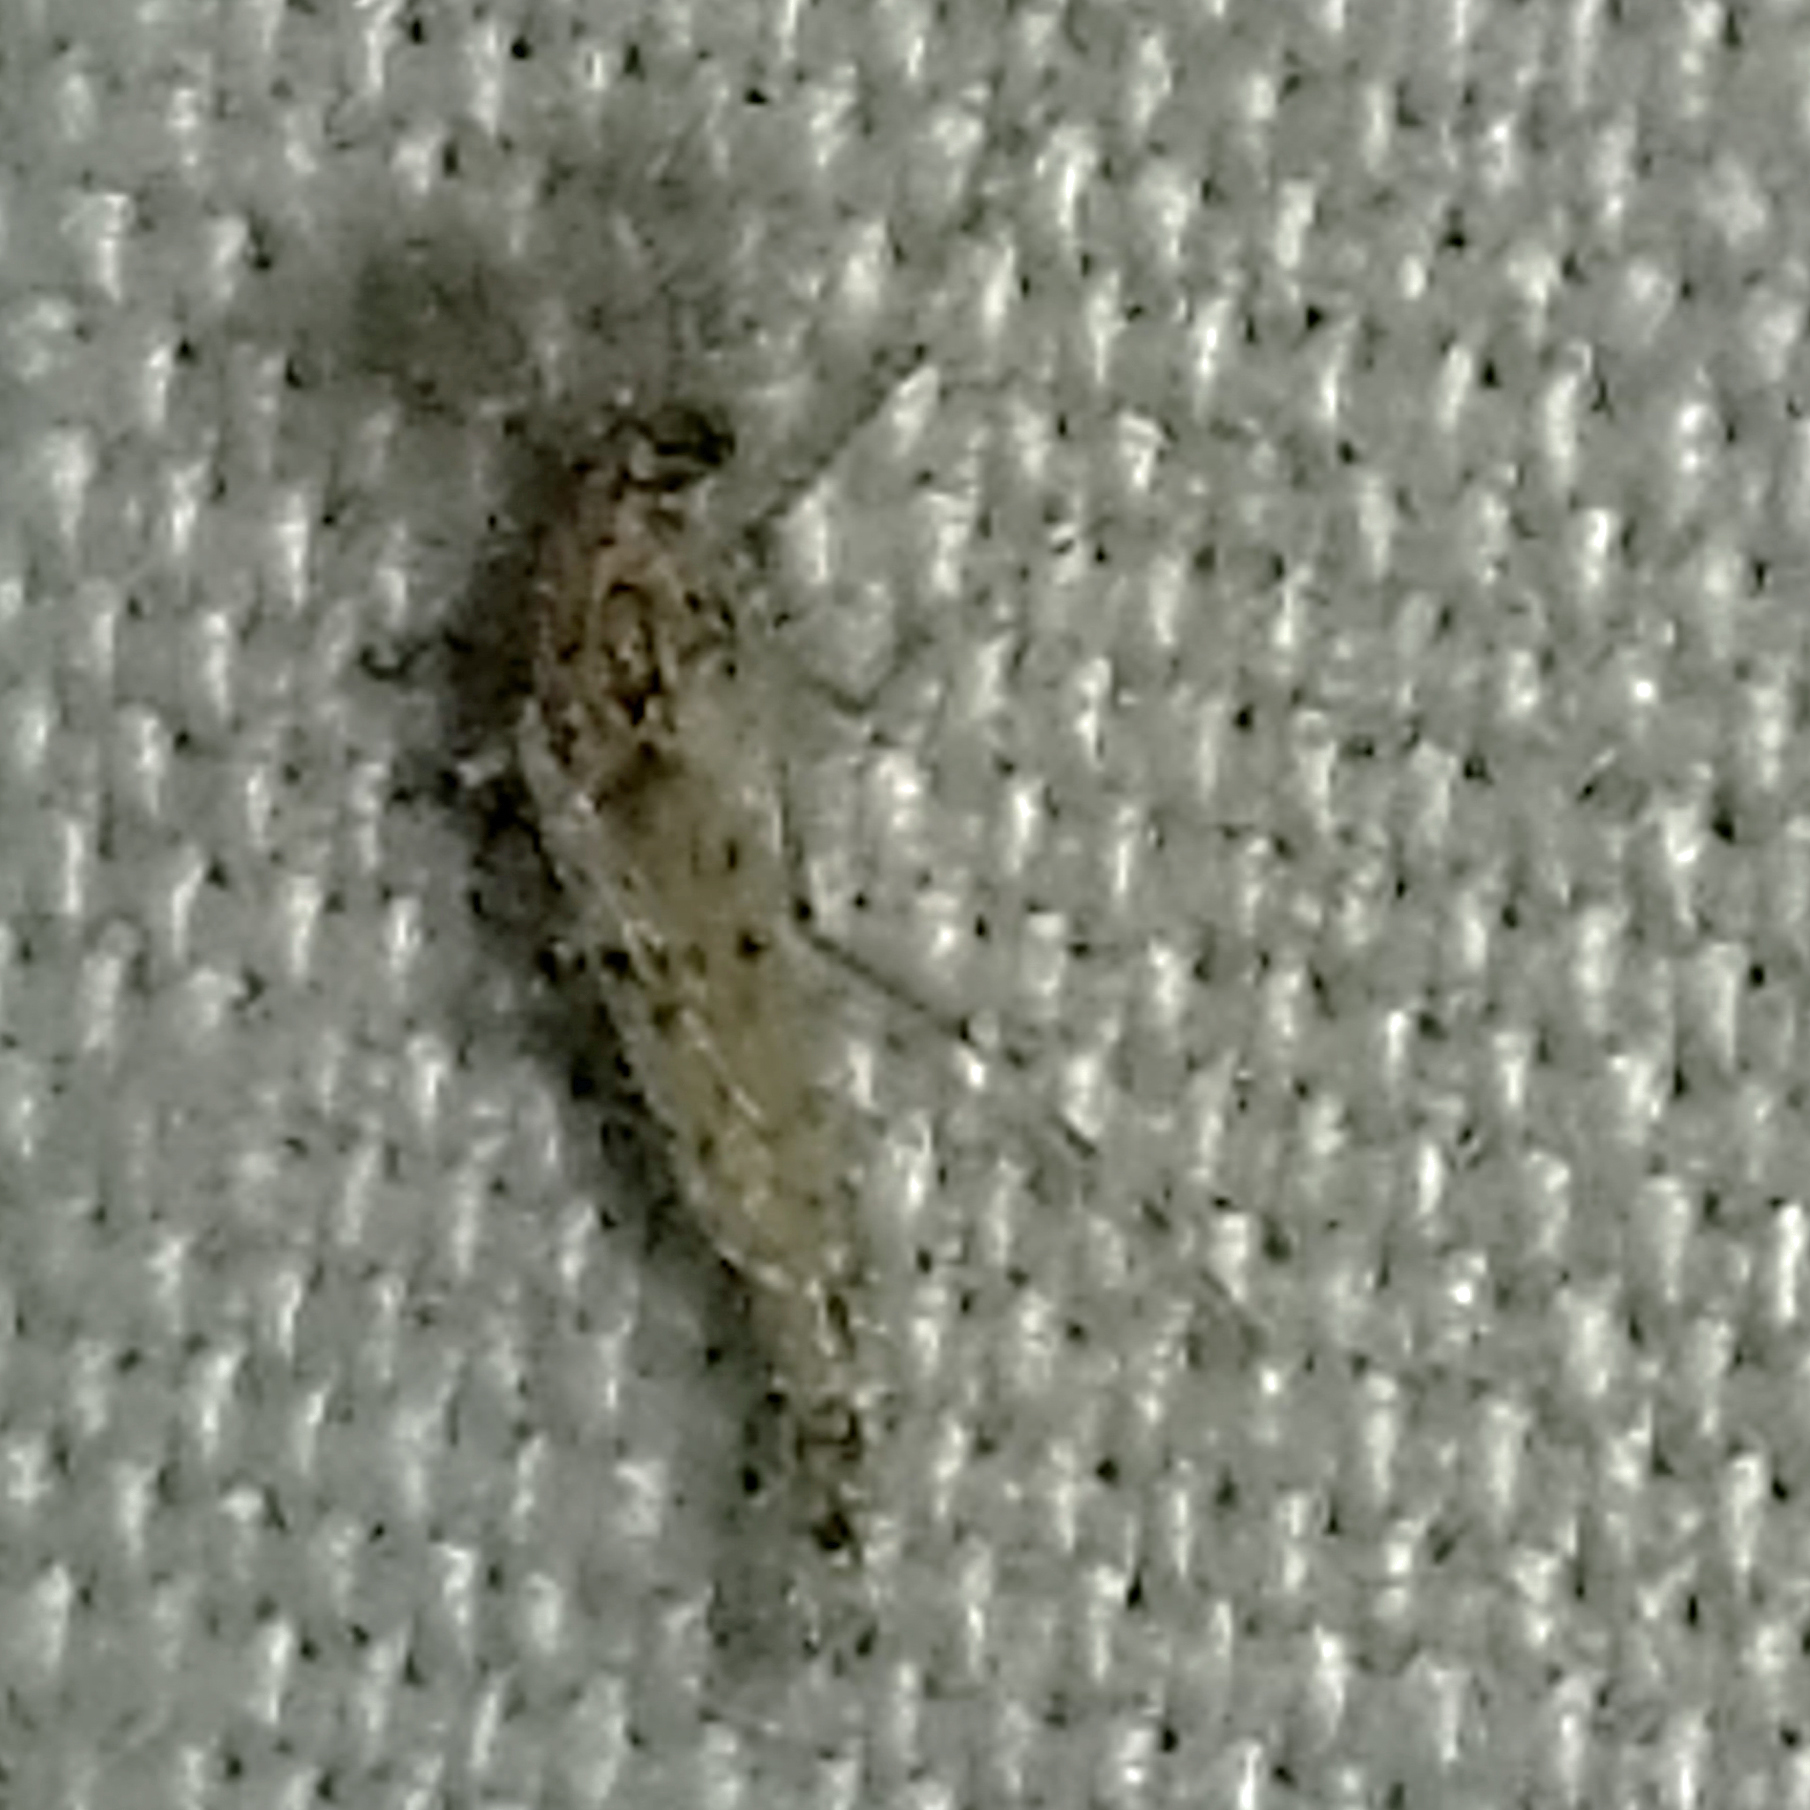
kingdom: Animalia
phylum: Arthropoda
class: Insecta
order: Diptera
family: Chaoboridae
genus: Chaoborus
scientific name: Chaoborus punctipennis
